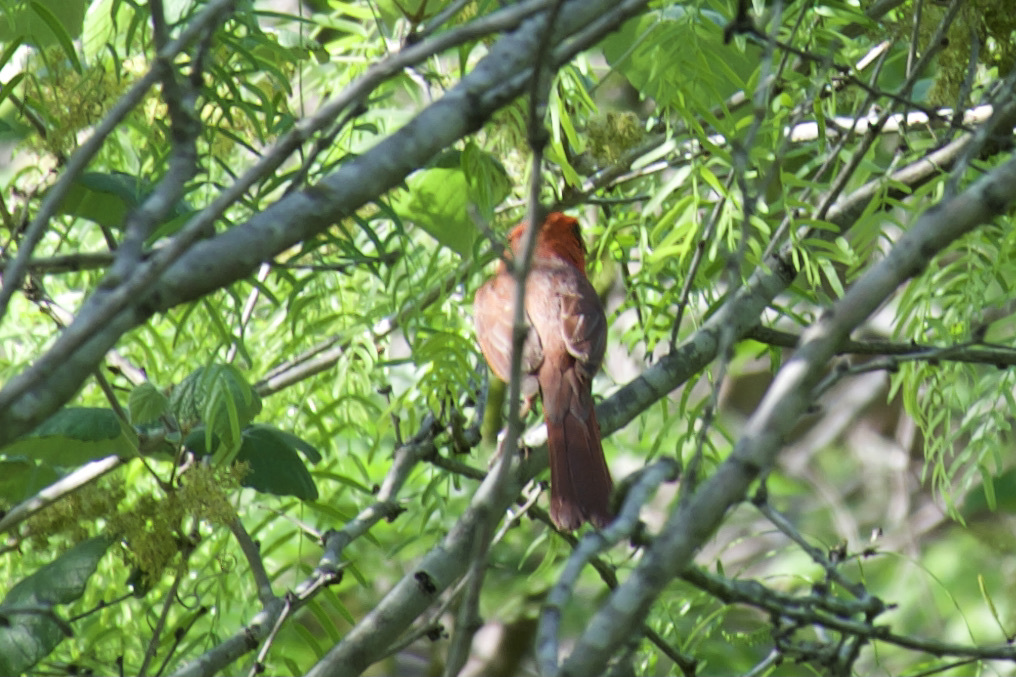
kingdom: Animalia
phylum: Chordata
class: Aves
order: Passeriformes
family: Cardinalidae
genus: Cardinalis
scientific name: Cardinalis cardinalis
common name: Northern cardinal
